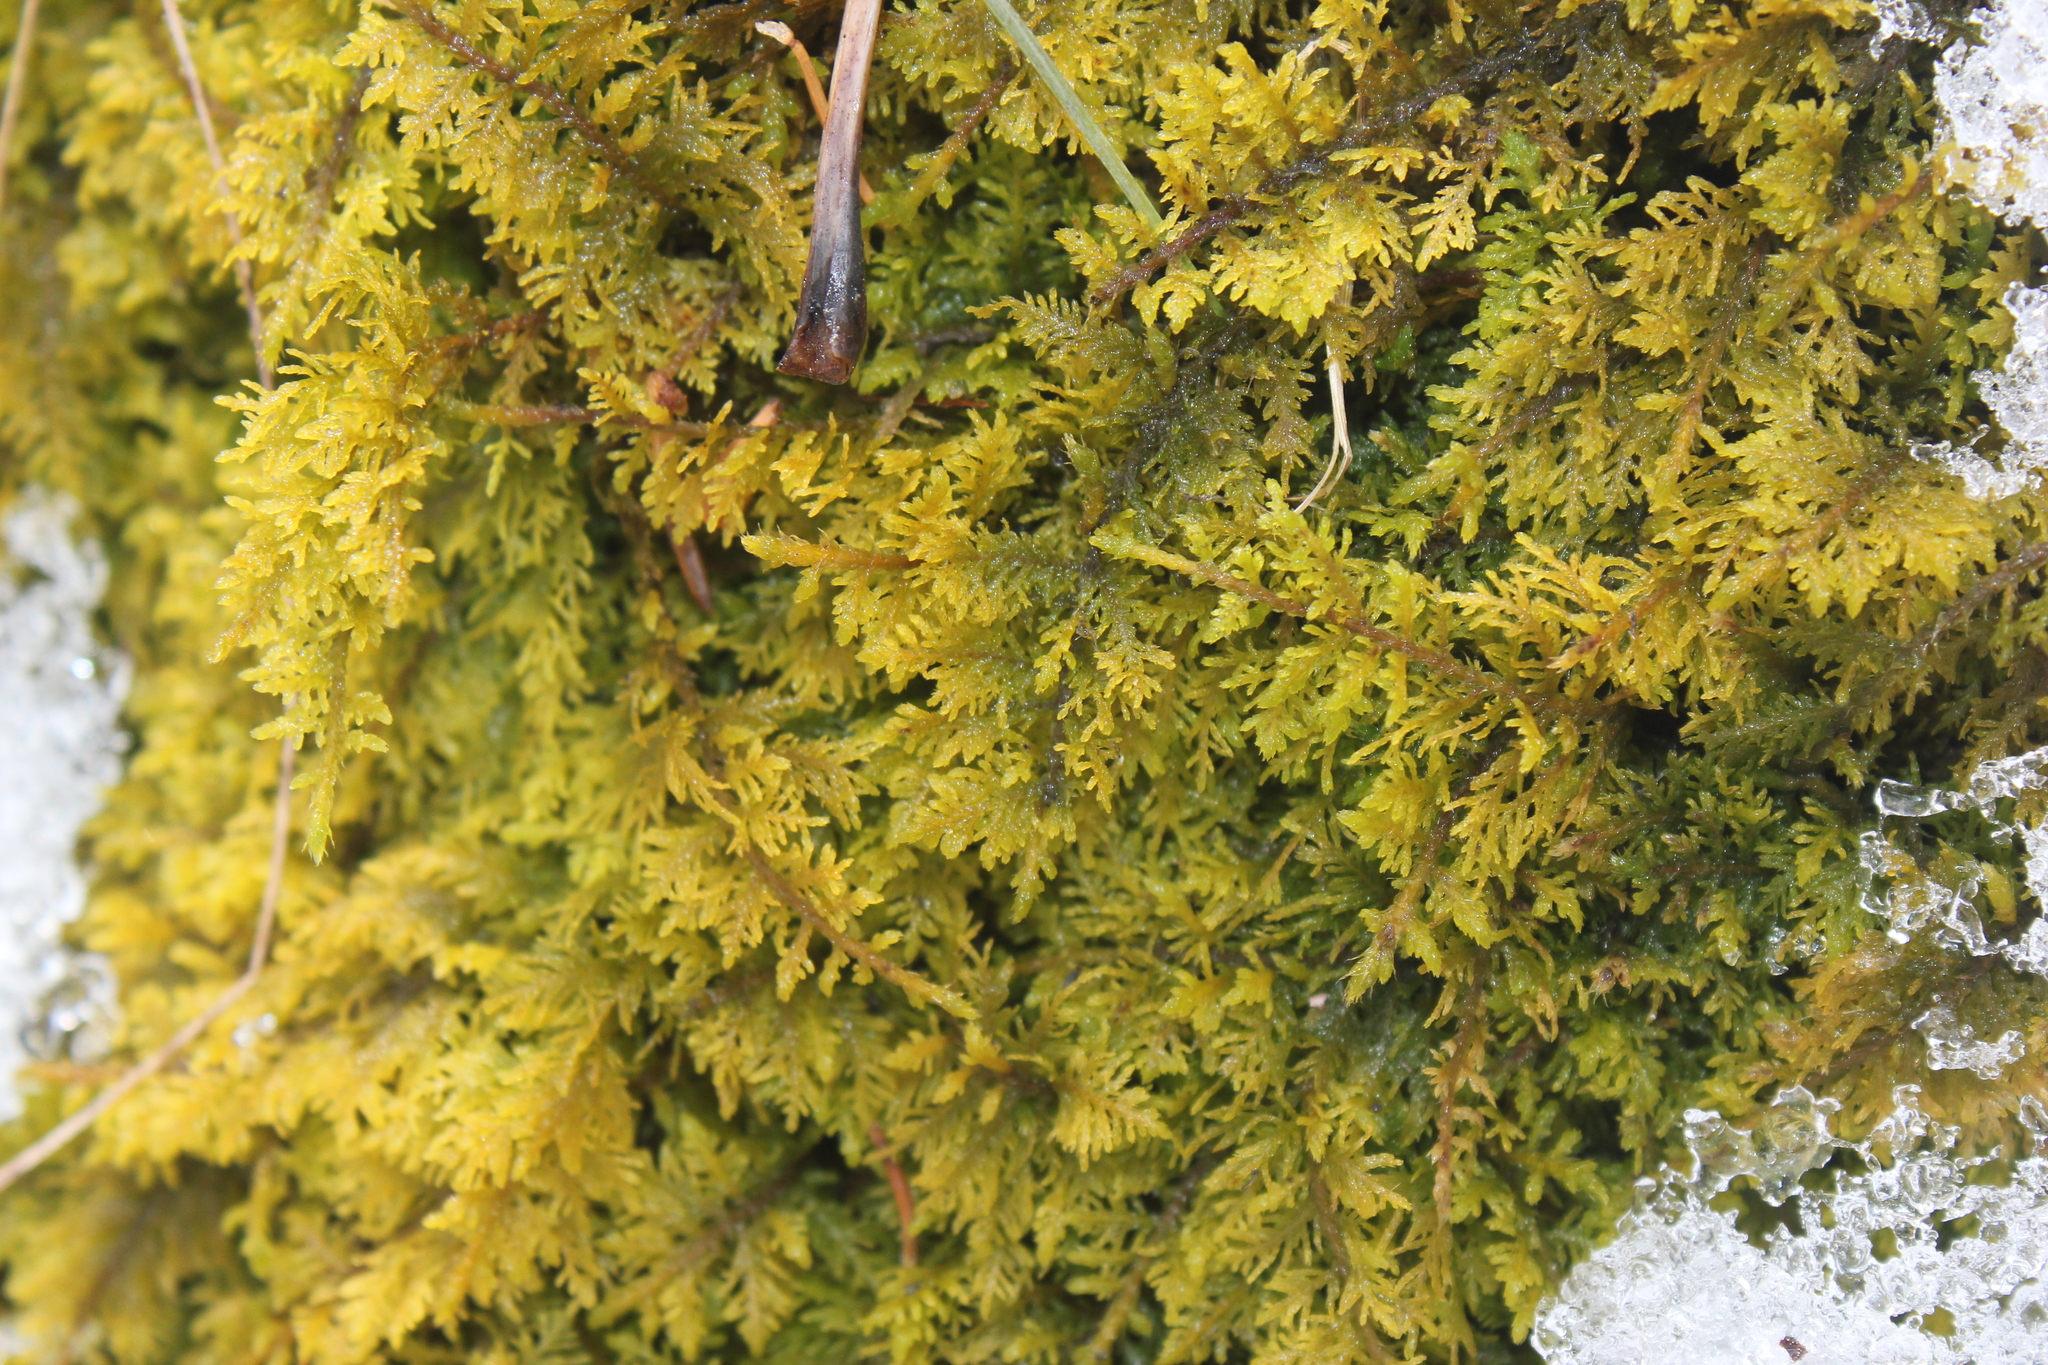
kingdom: Plantae
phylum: Bryophyta
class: Bryopsida
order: Hypnales
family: Thuidiaceae
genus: Thuidium
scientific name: Thuidium delicatulum
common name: Delicate fern moss
